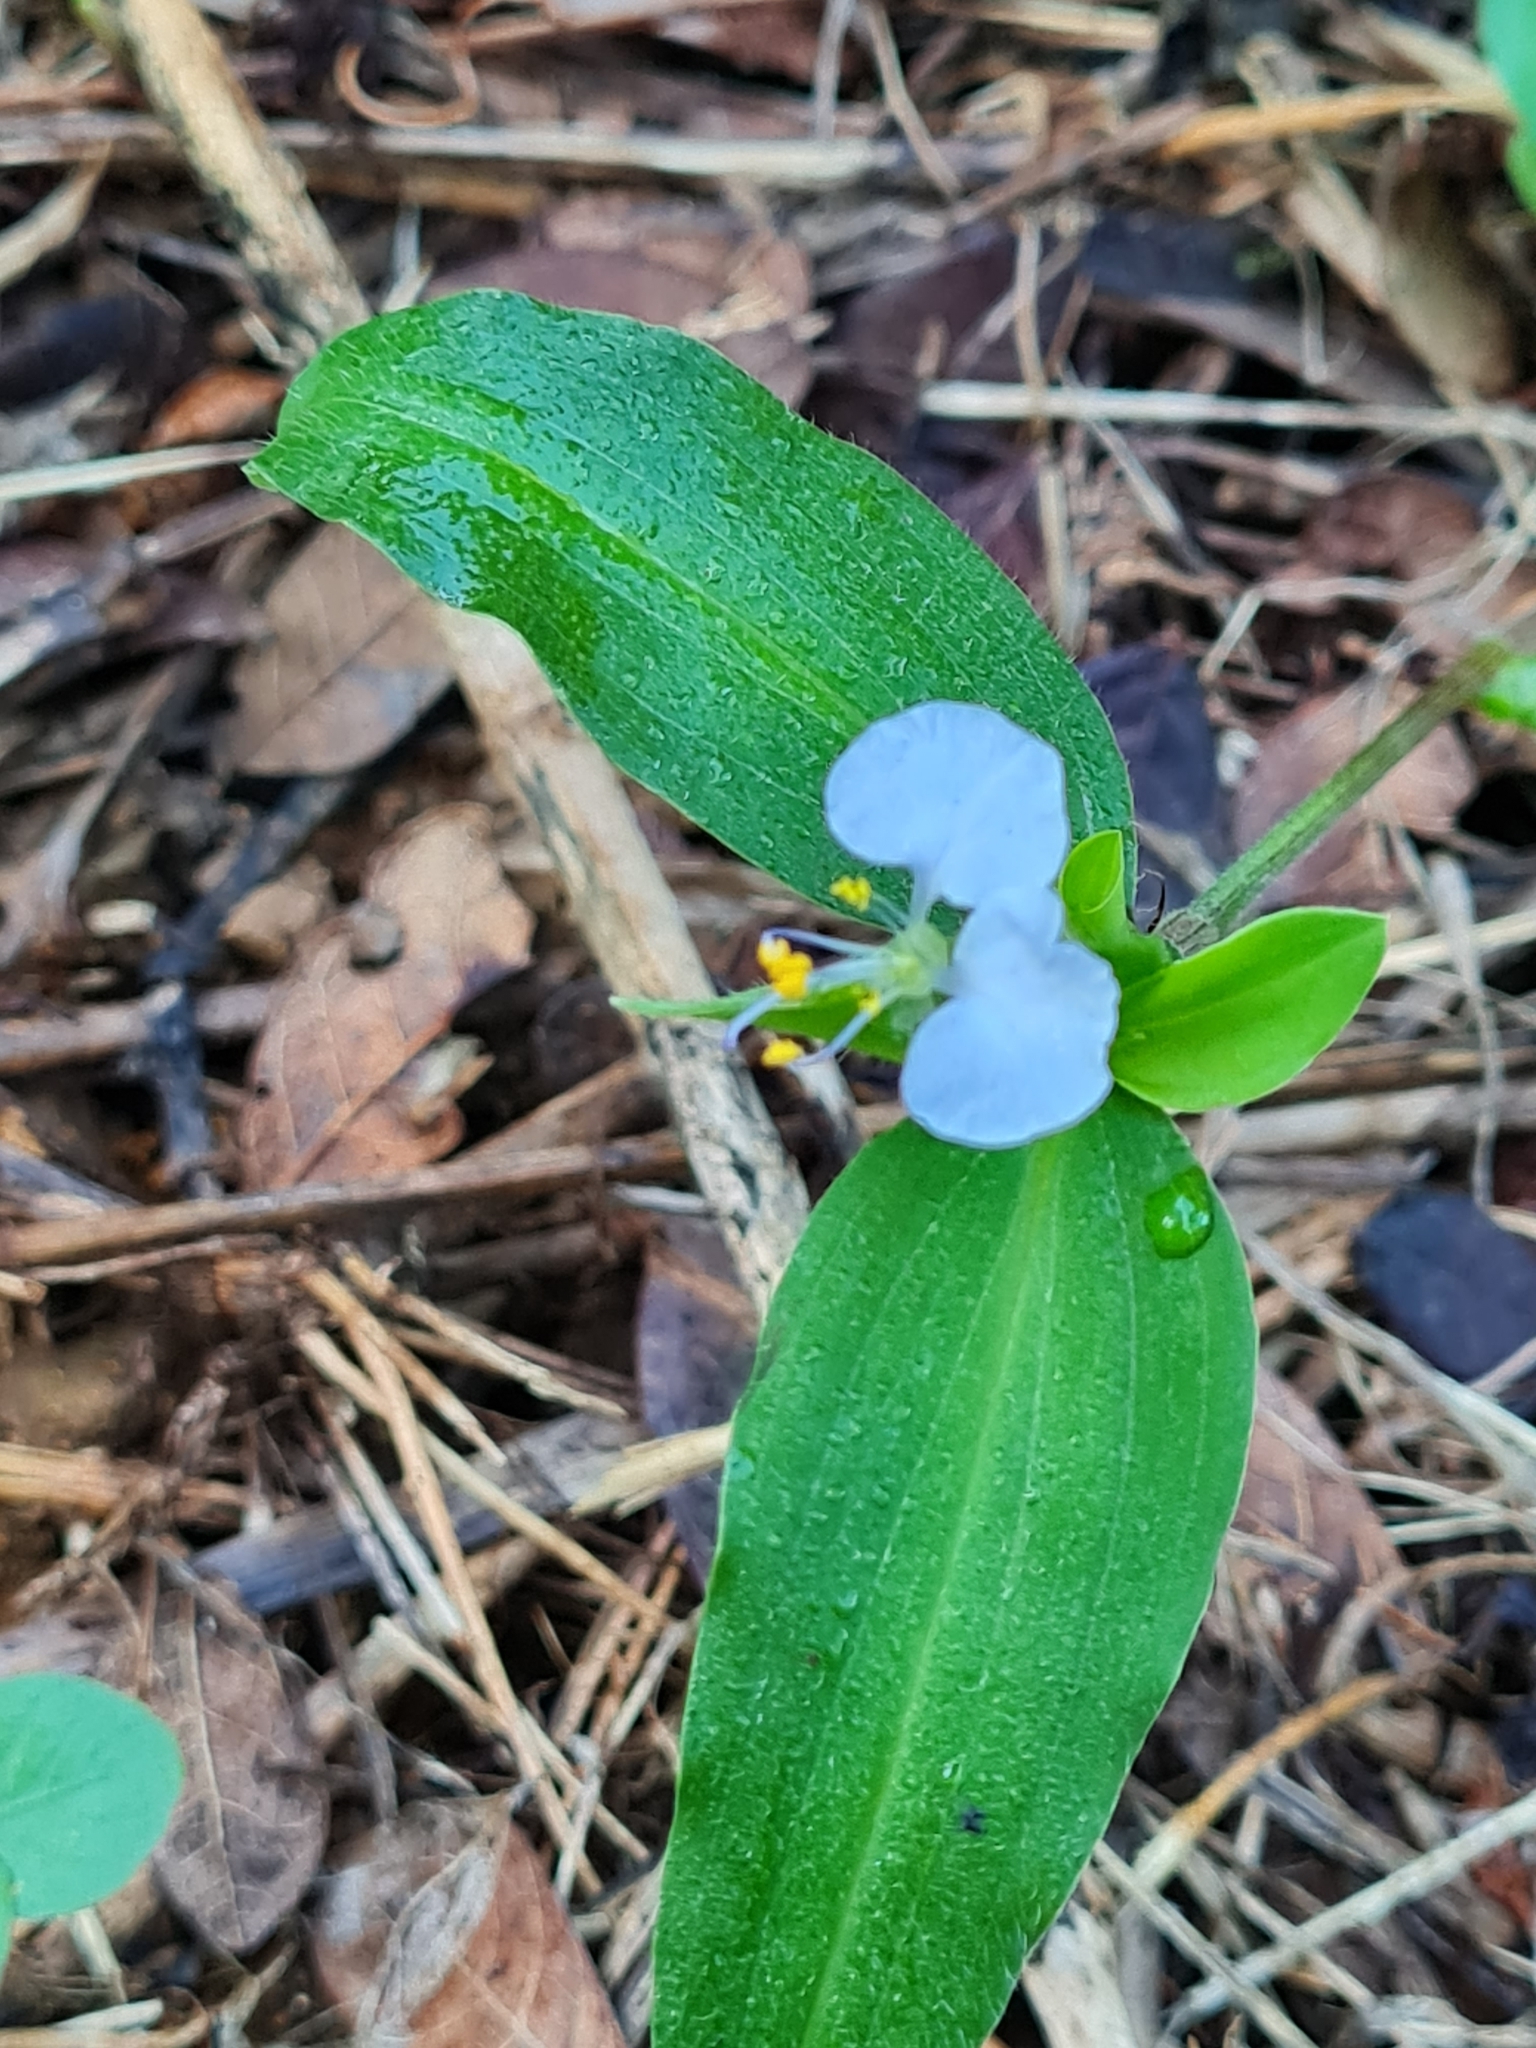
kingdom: Plantae
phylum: Tracheophyta
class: Liliopsida
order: Commelinales
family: Commelinaceae
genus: Commelina
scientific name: Commelina erecta
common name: Blousel blommetjie
